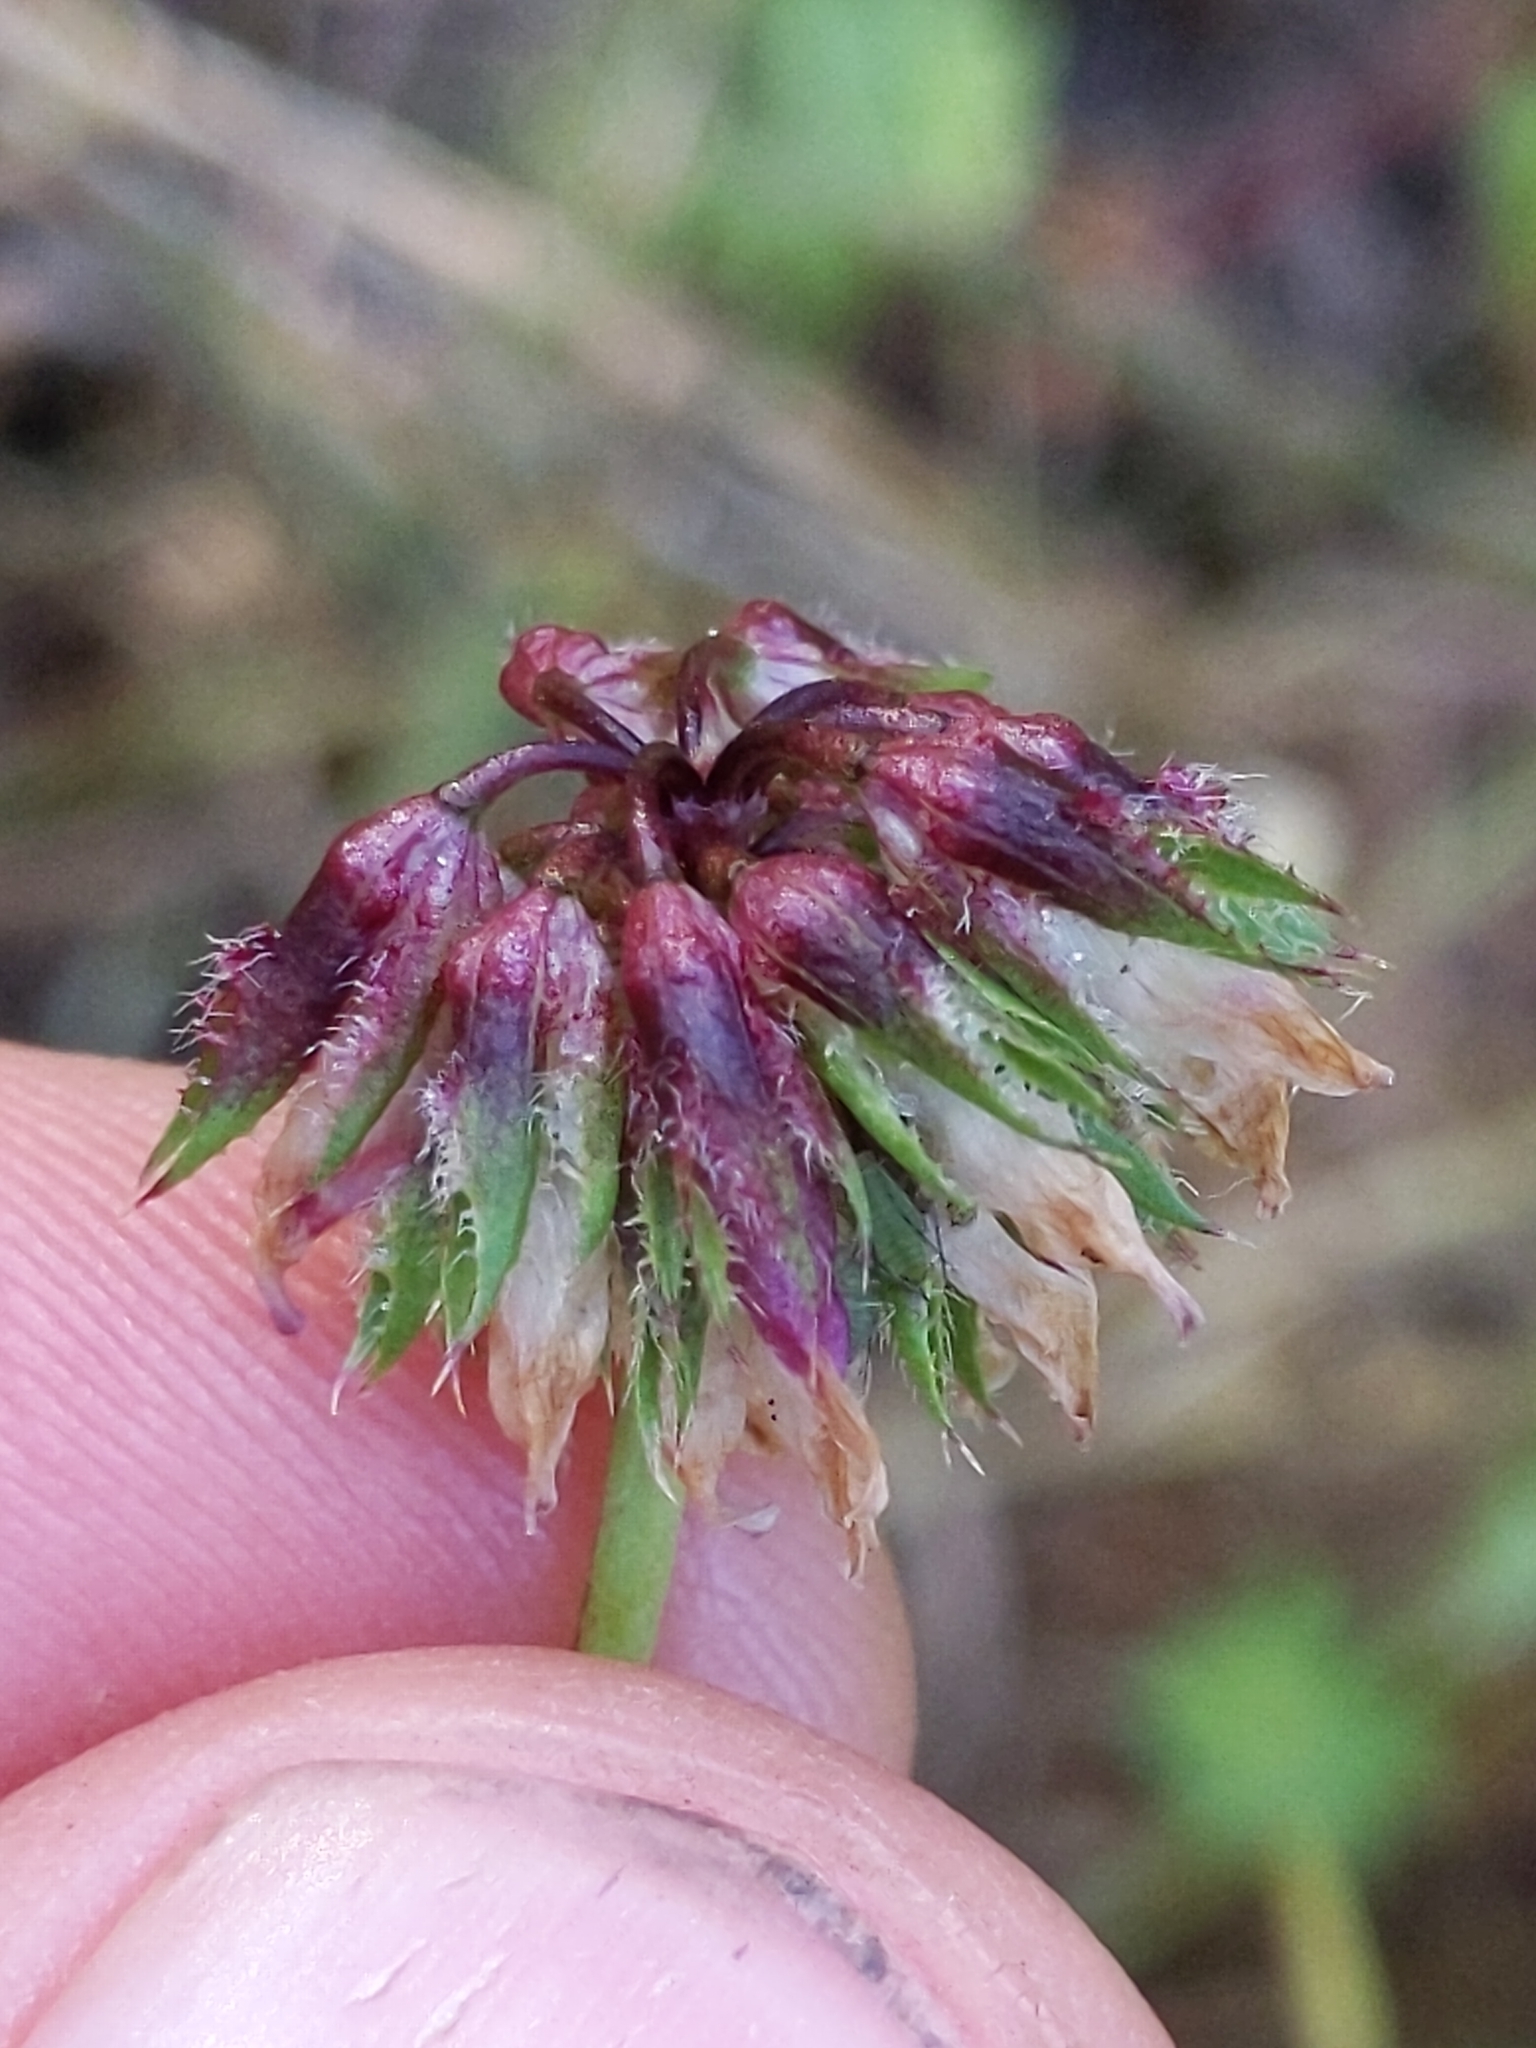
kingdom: Plantae
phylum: Tracheophyta
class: Magnoliopsida
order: Fabales
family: Fabaceae
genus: Trifolium
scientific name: Trifolium ciliolatum
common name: Foothill clover
